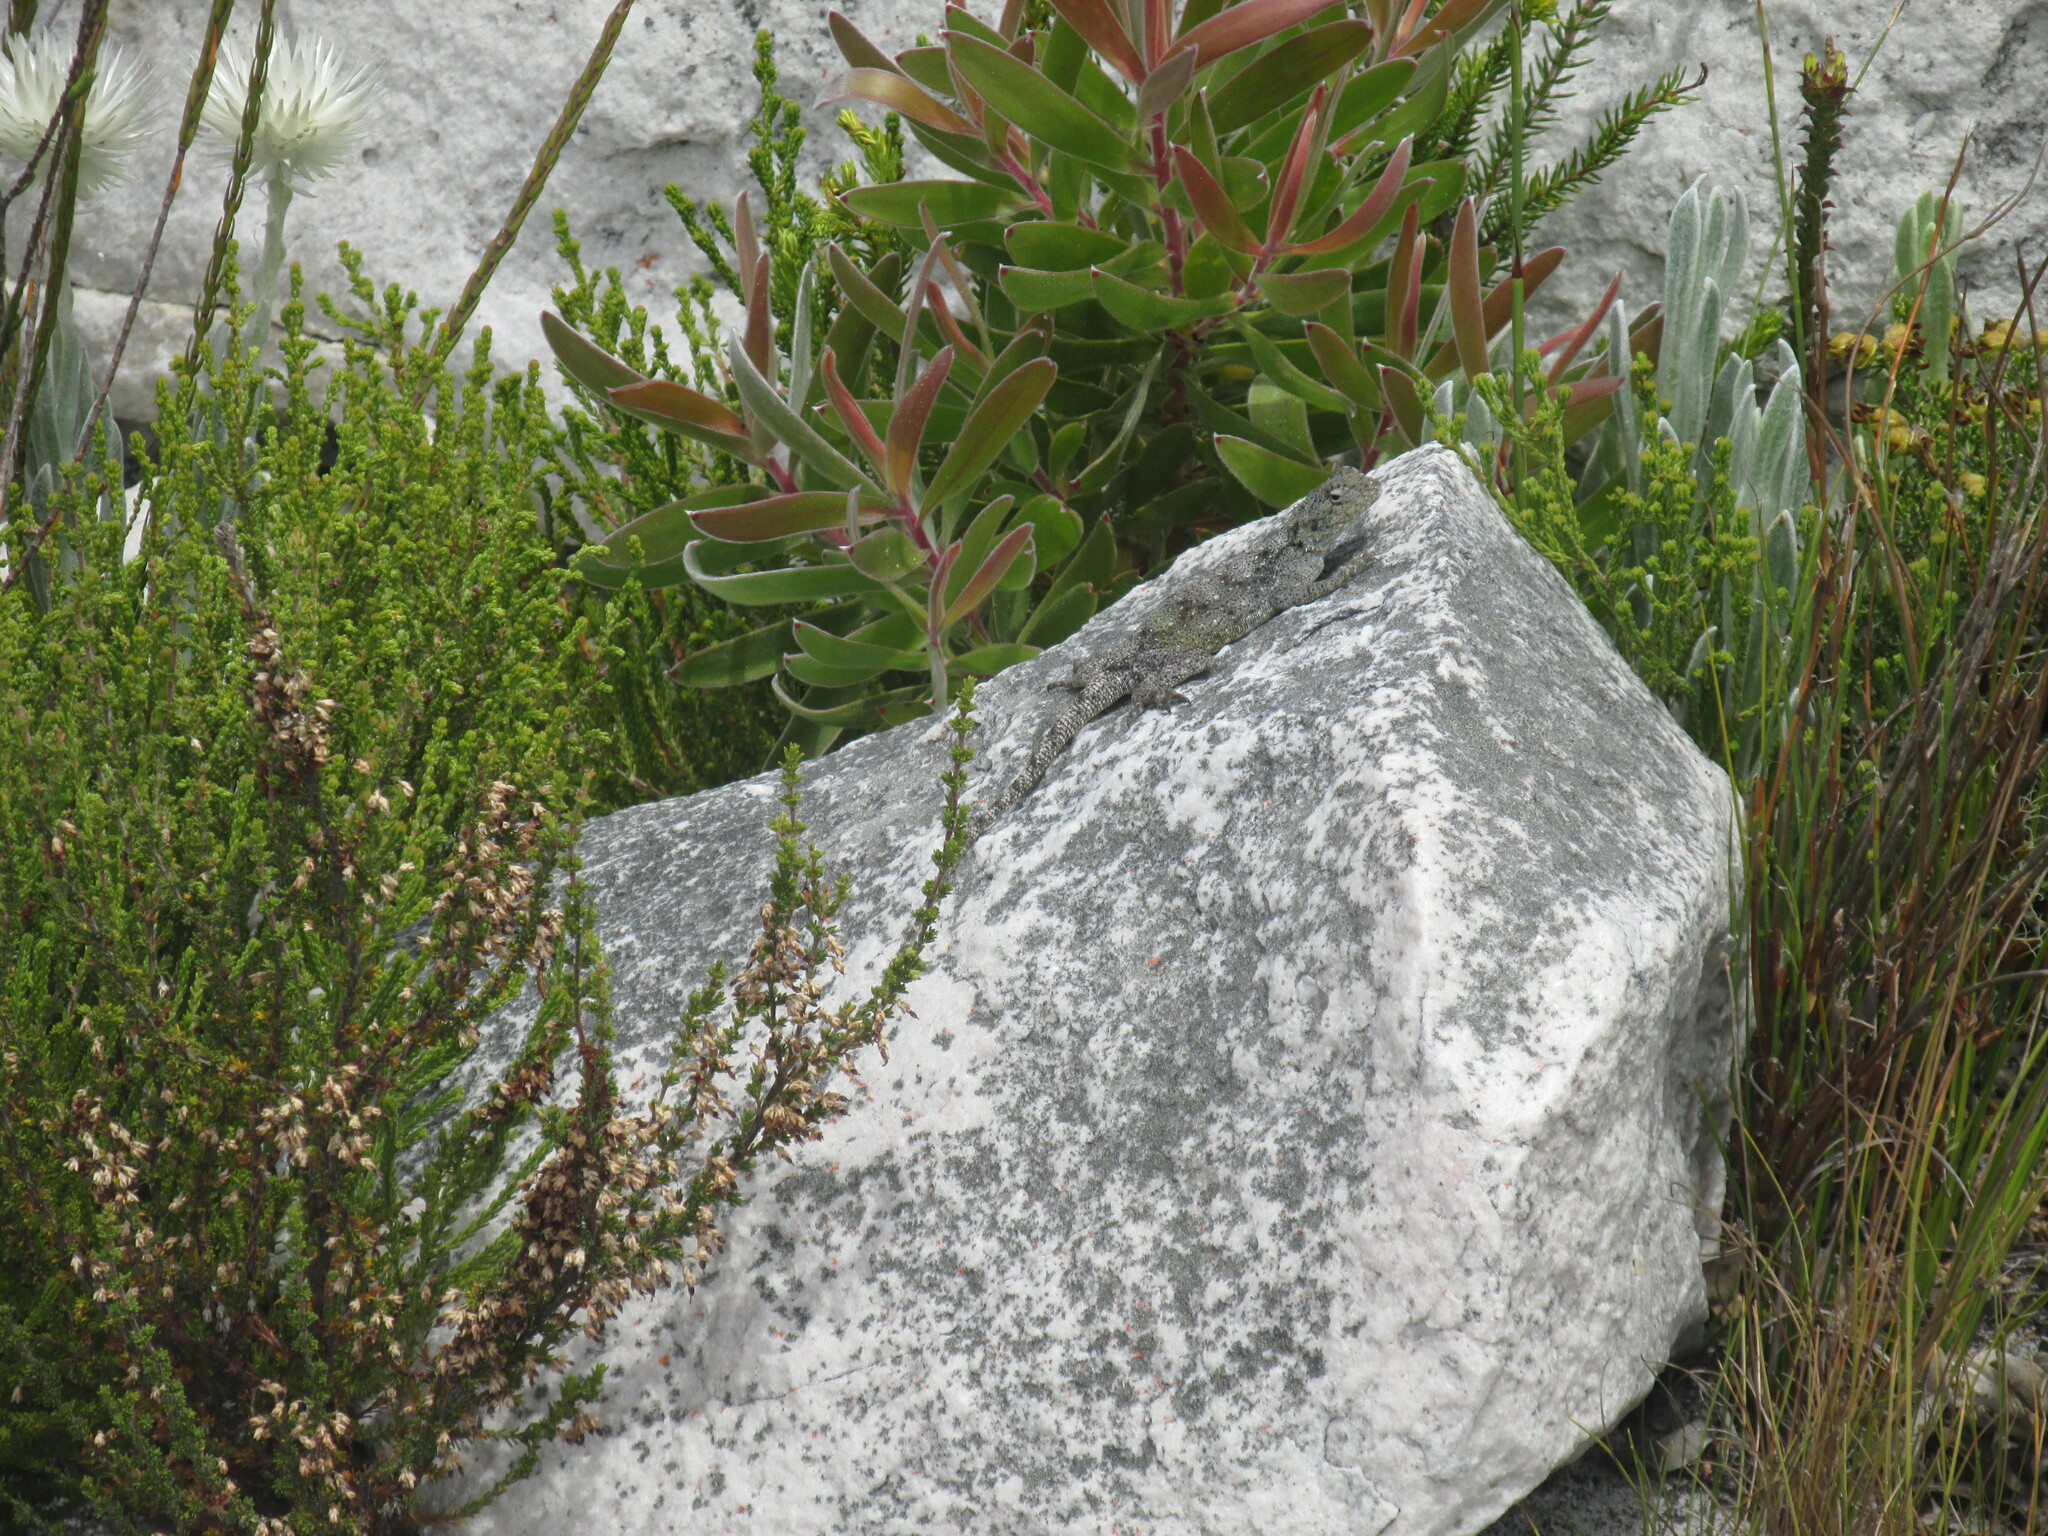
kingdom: Animalia
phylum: Chordata
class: Squamata
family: Agamidae
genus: Agama
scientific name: Agama atra
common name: Southern african rock agama
